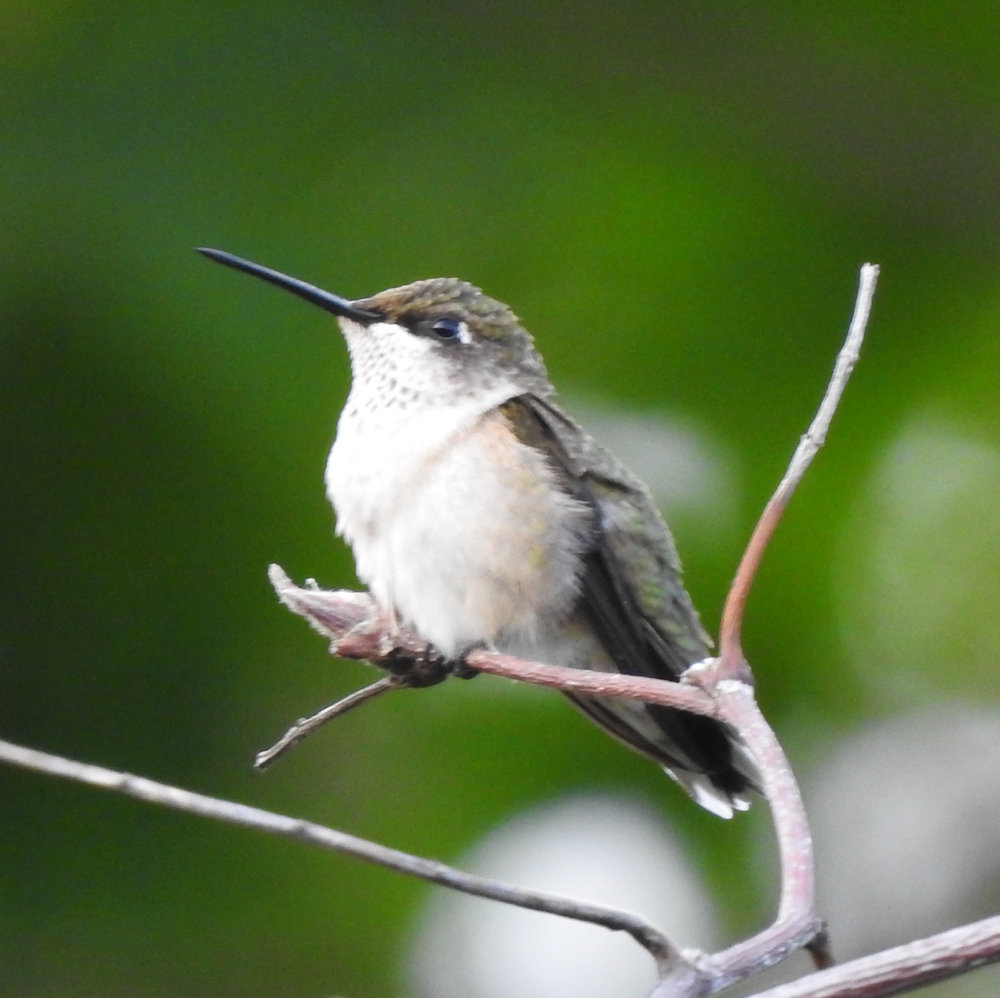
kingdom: Animalia
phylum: Chordata
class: Aves
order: Apodiformes
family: Trochilidae
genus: Archilochus
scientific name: Archilochus colubris
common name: Ruby-throated hummingbird
